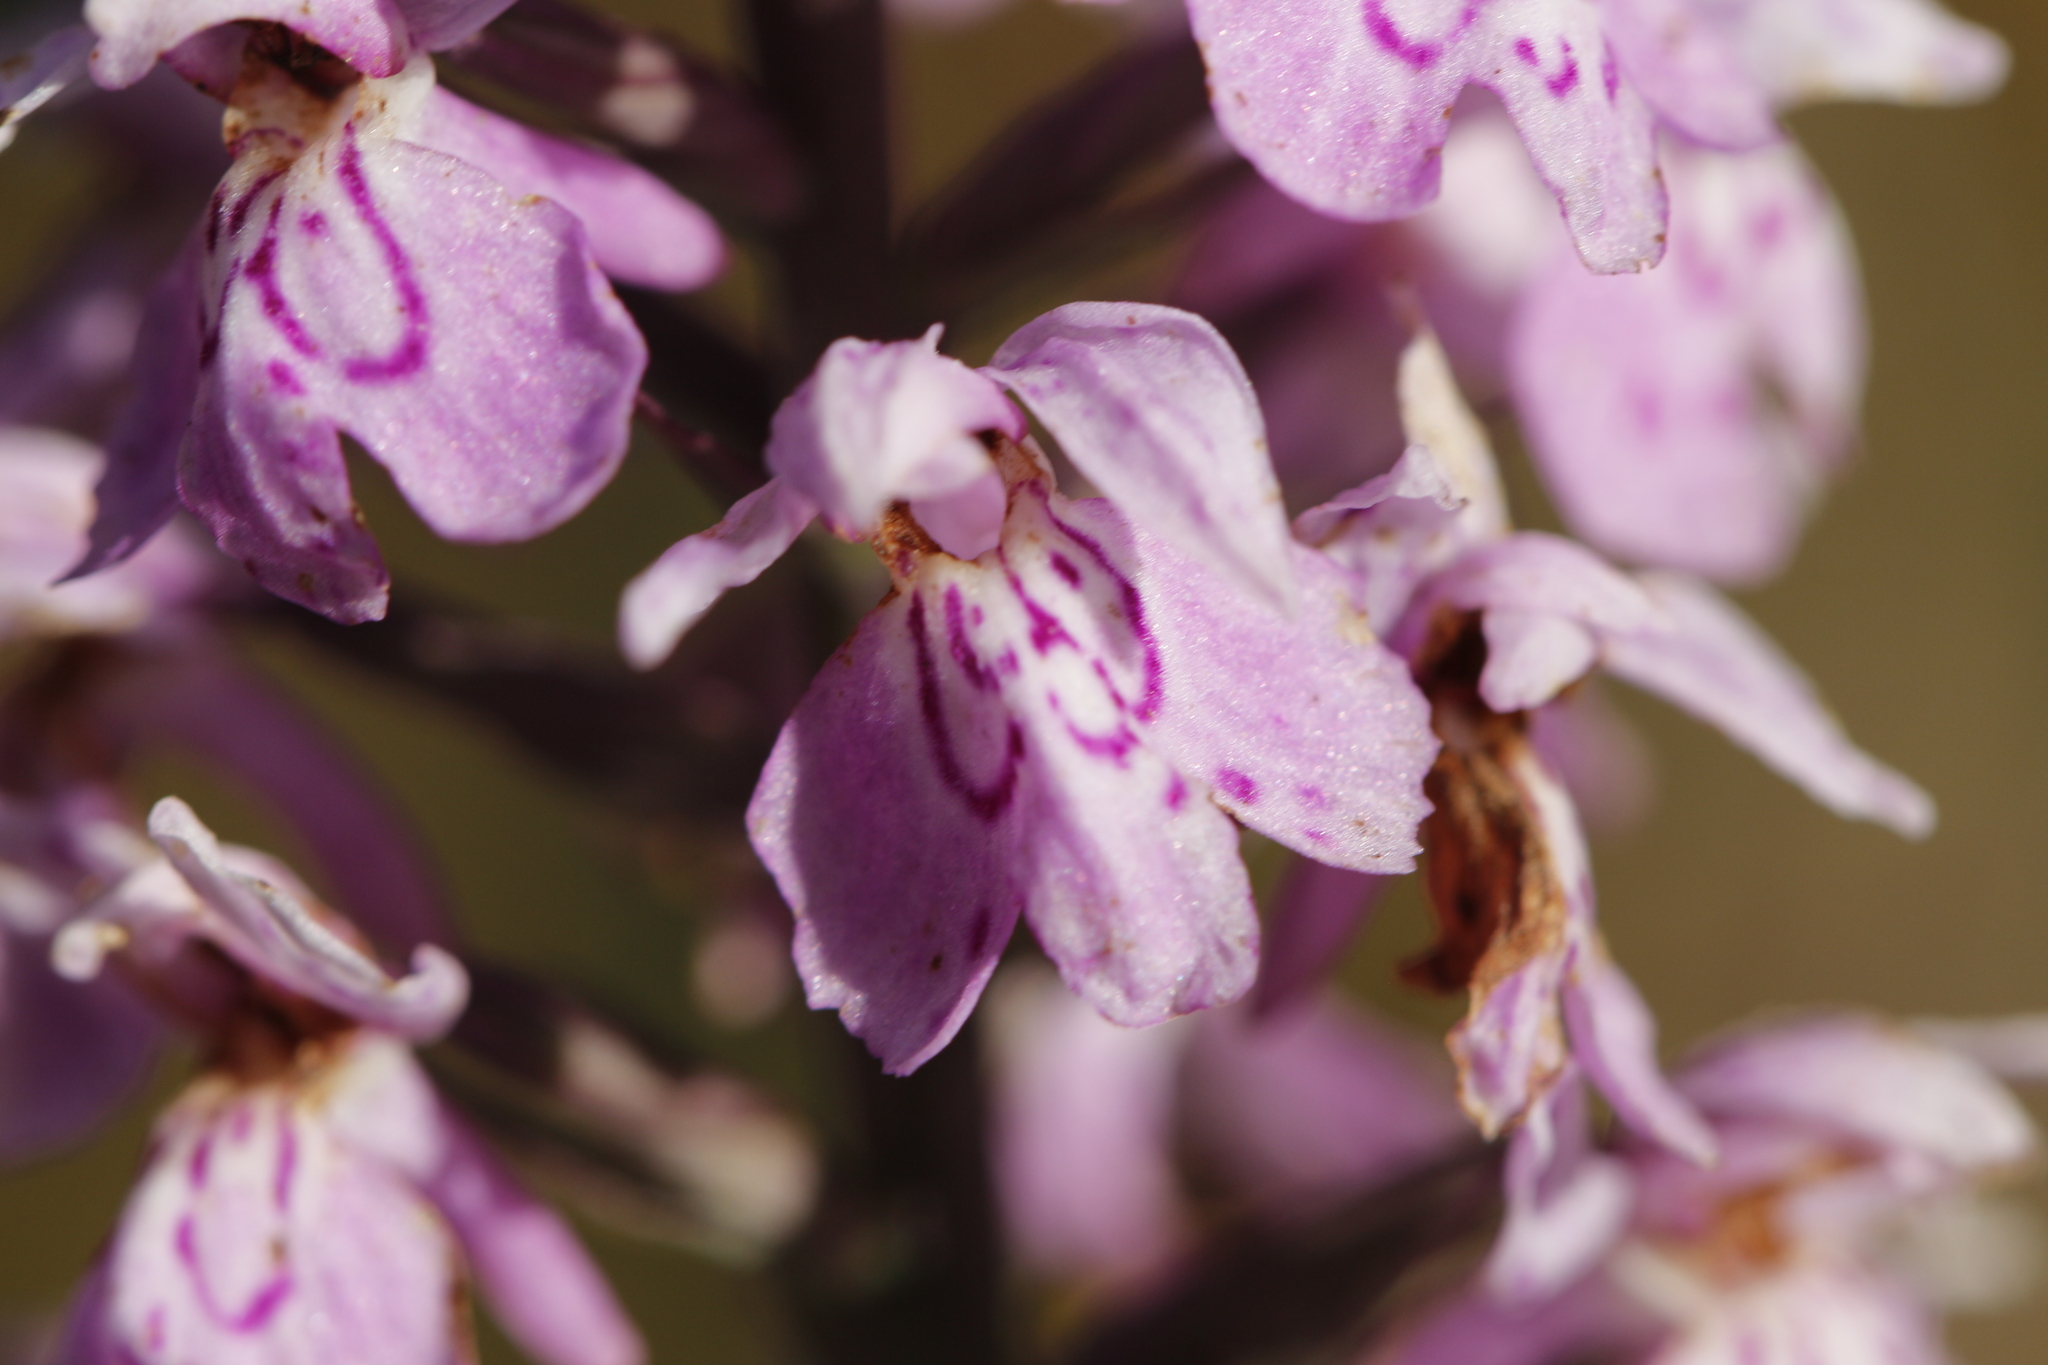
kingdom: Plantae
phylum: Tracheophyta
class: Liliopsida
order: Asparagales
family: Orchidaceae
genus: Dactylorhiza
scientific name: Dactylorhiza maculata
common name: Heath spotted-orchid
